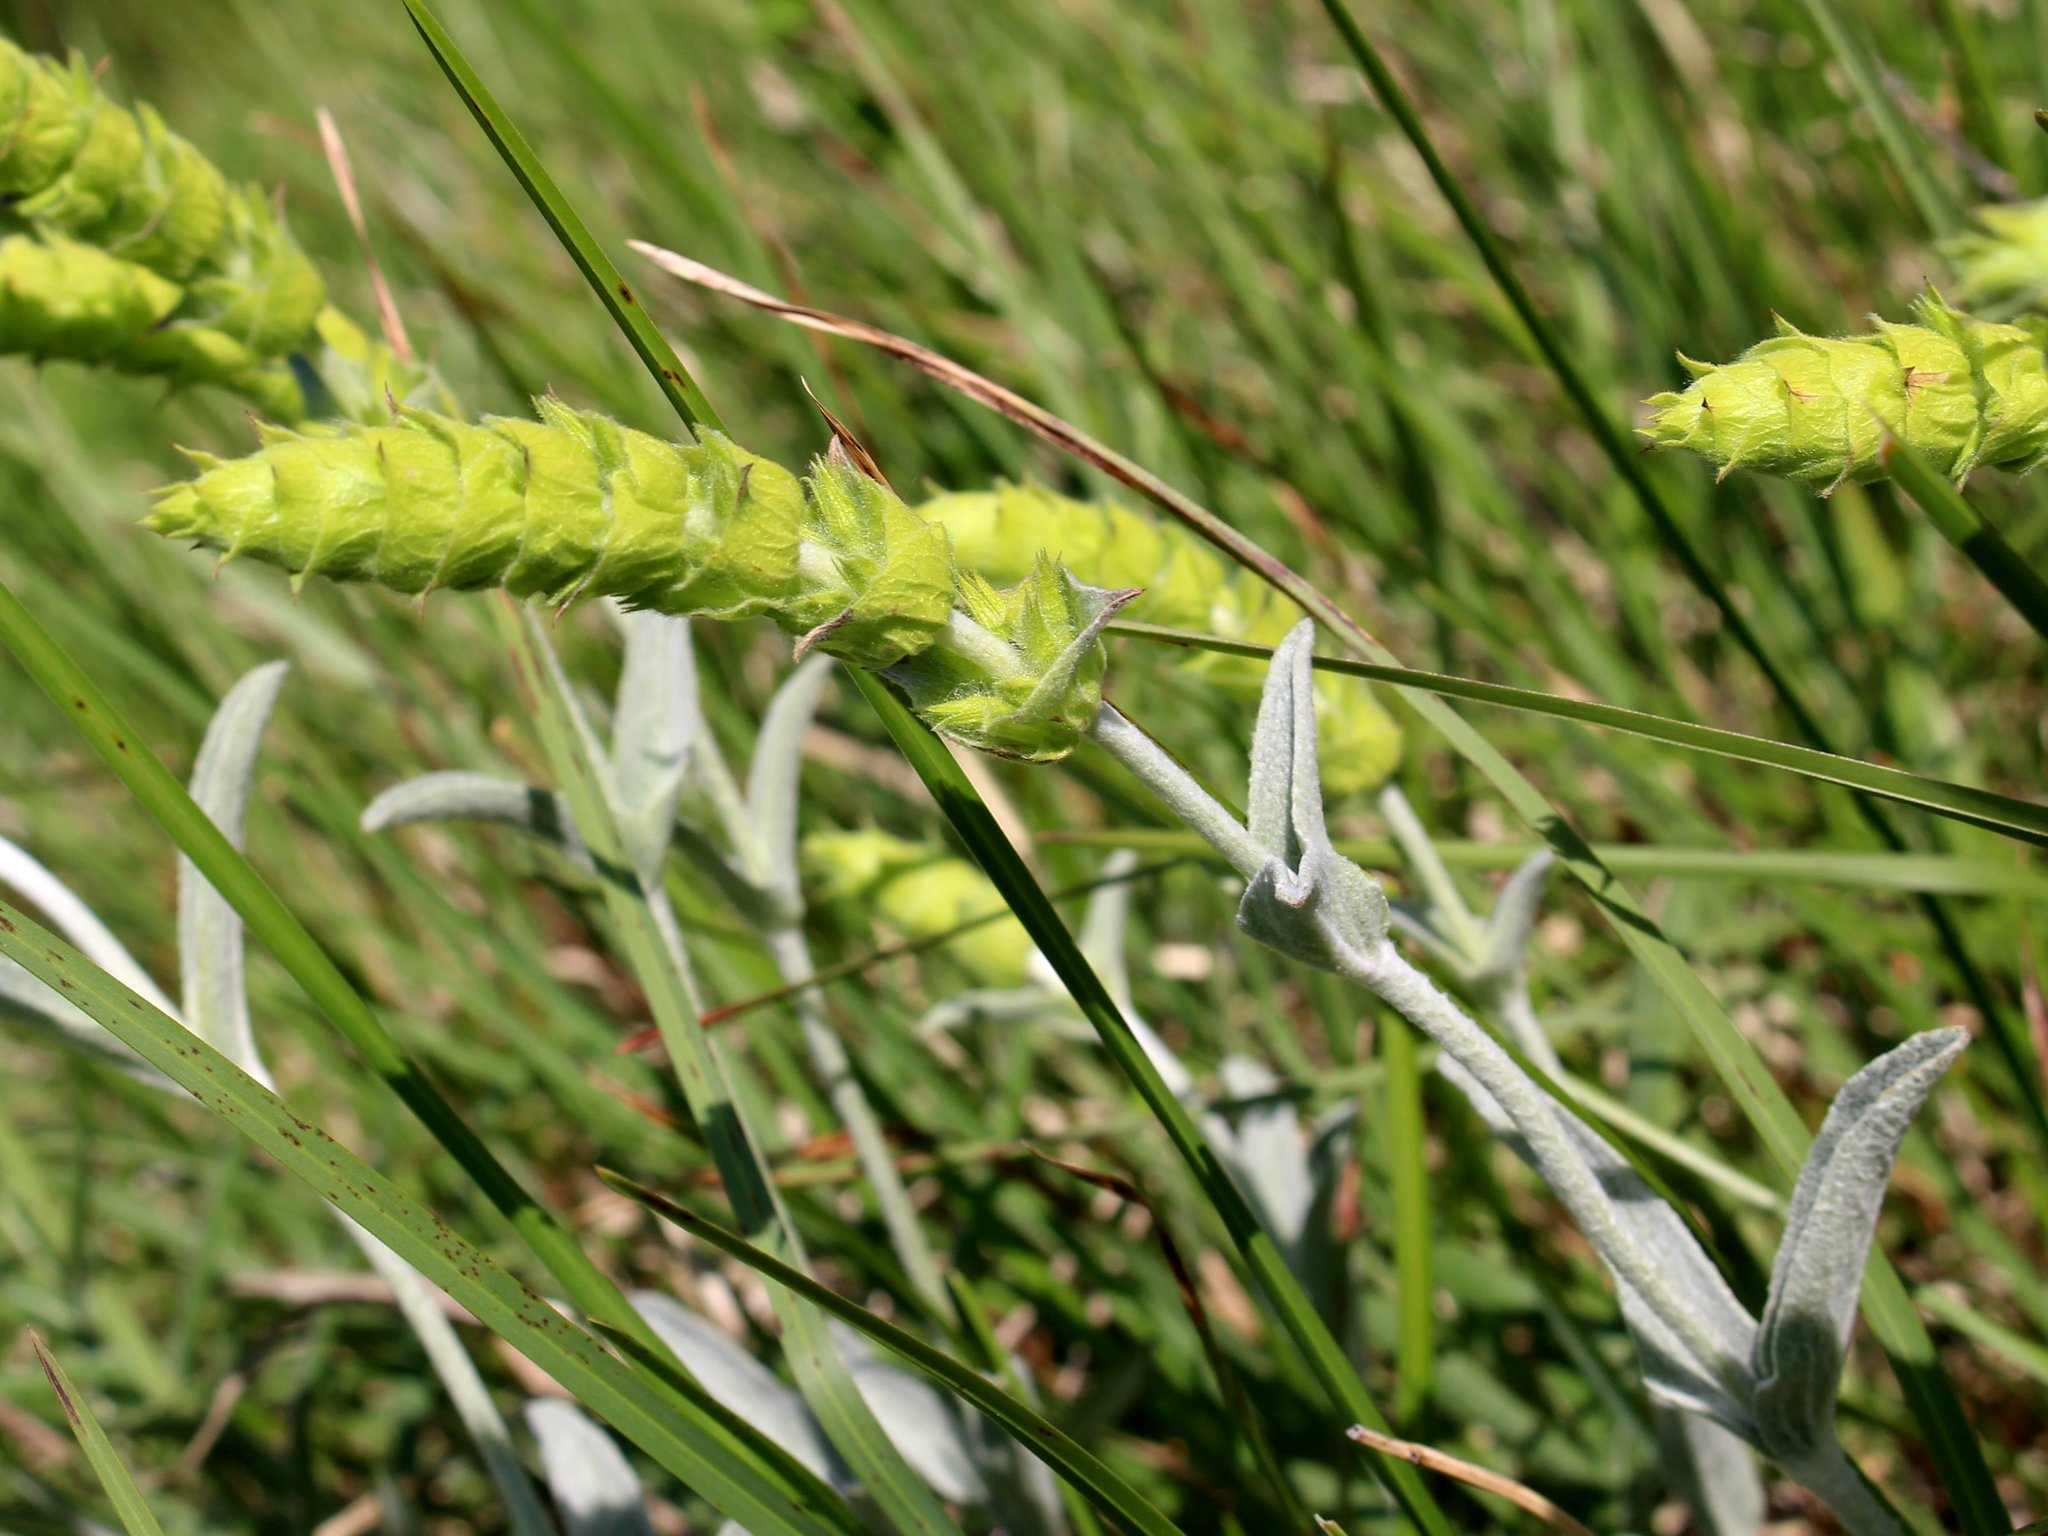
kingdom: Plantae
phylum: Tracheophyta
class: Magnoliopsida
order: Lamiales
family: Lamiaceae
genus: Sideritis
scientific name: Sideritis euxina
